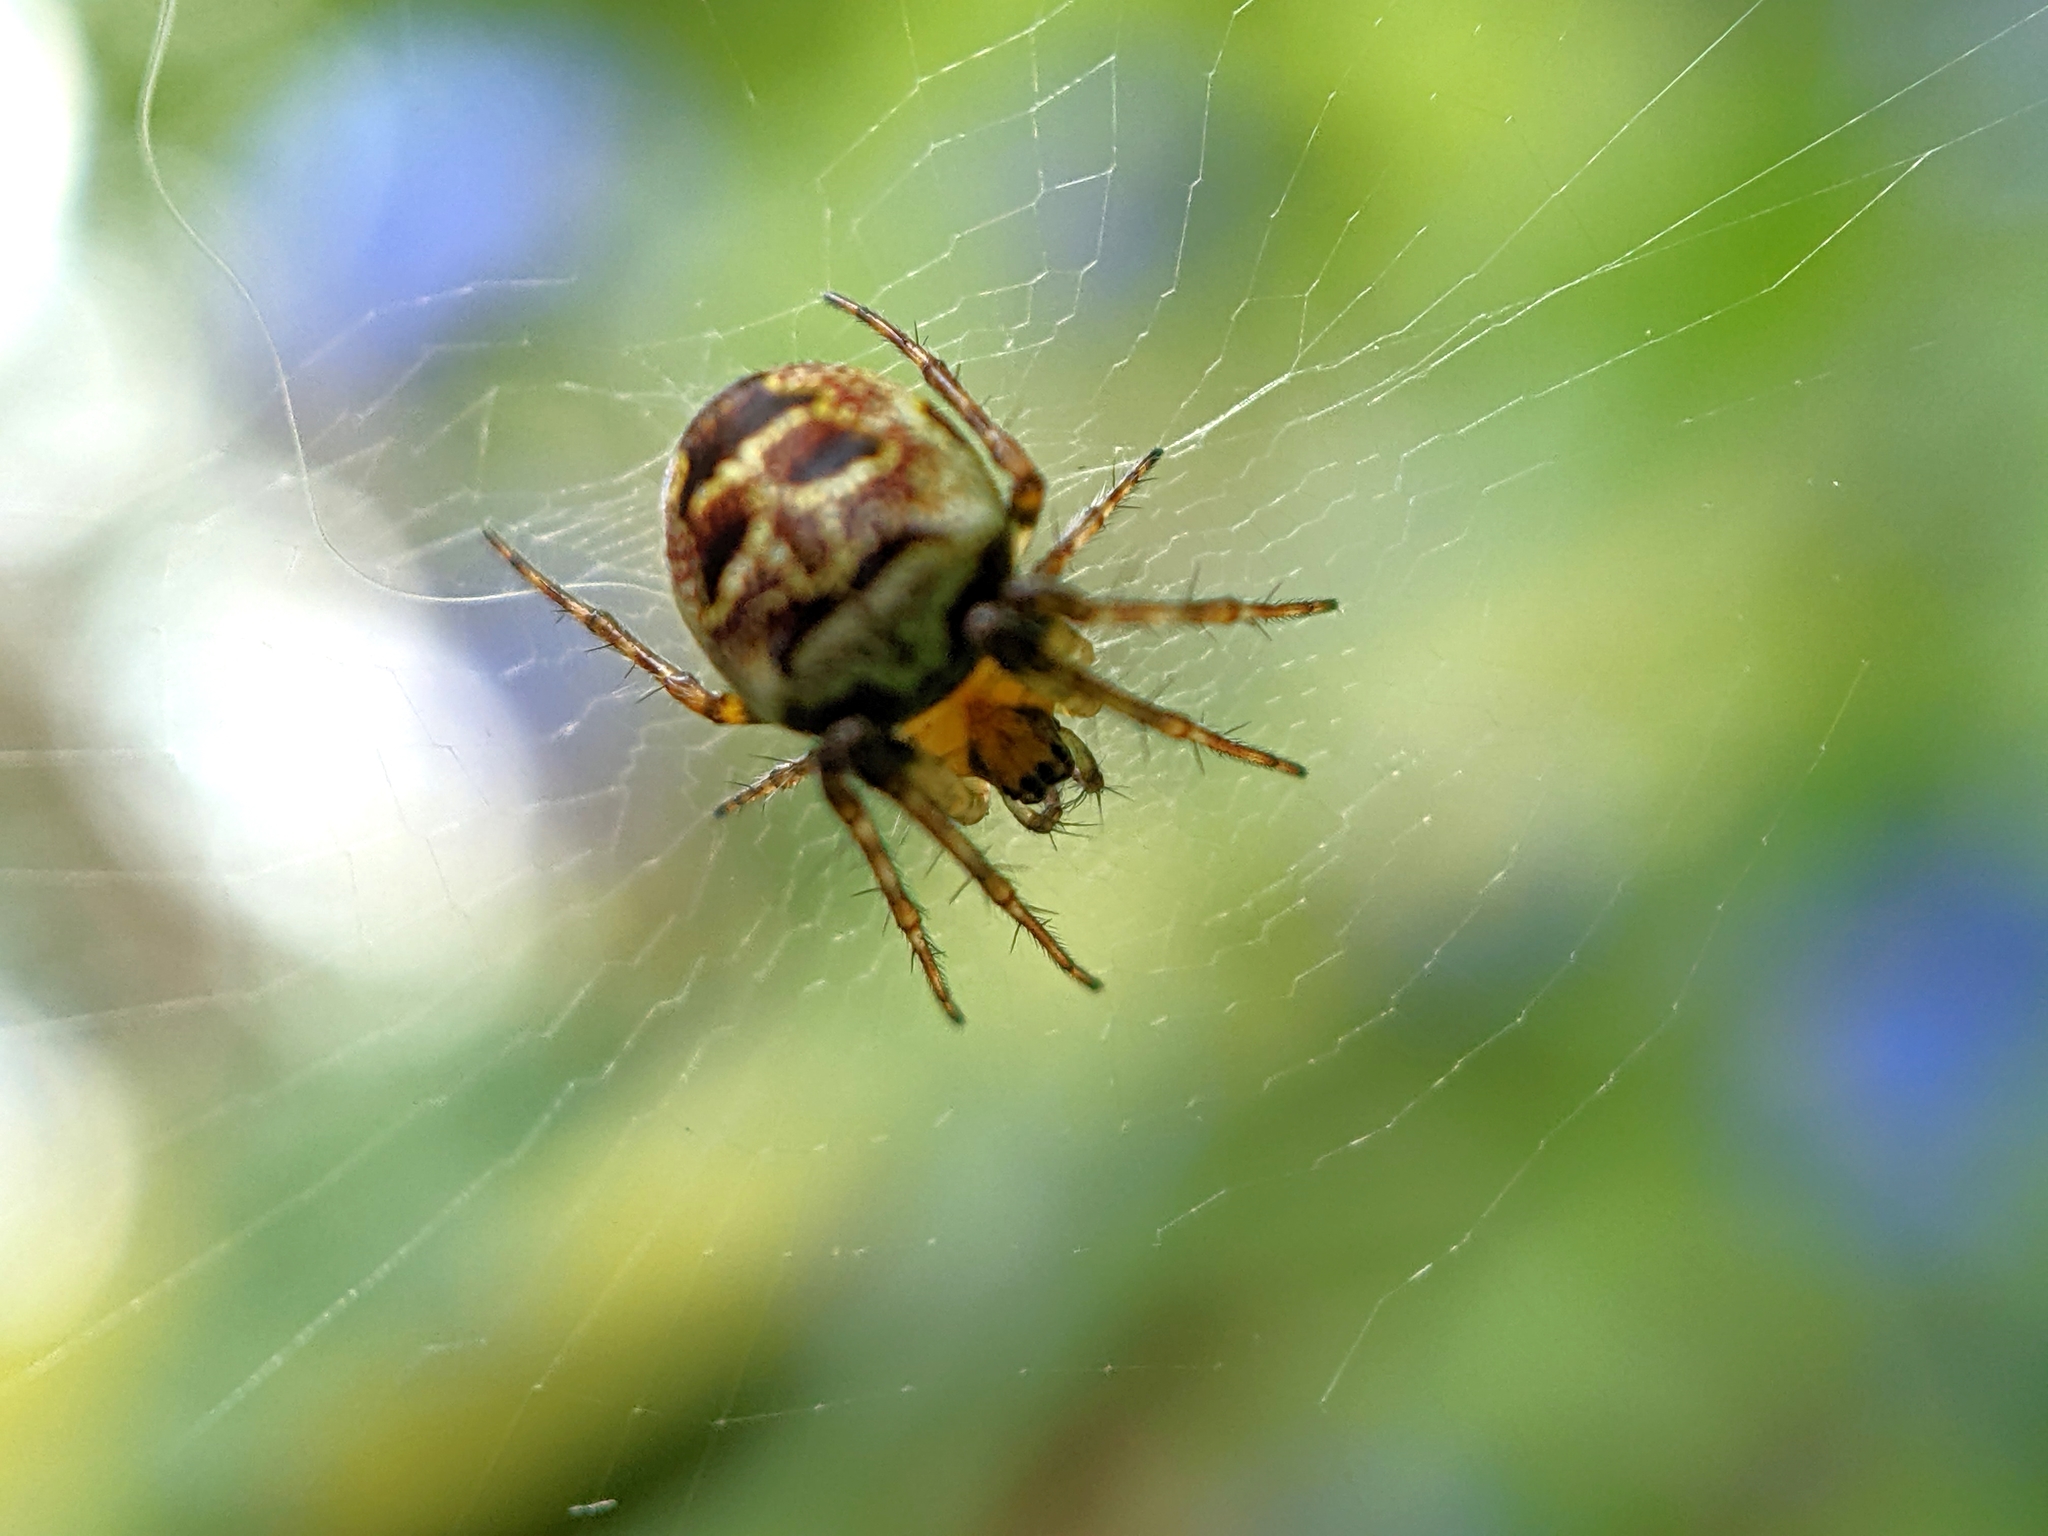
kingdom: Animalia
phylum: Arthropoda
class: Arachnida
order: Araneae
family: Araneidae
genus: Zilla
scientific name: Zilla diodia
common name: Zilla diodia
